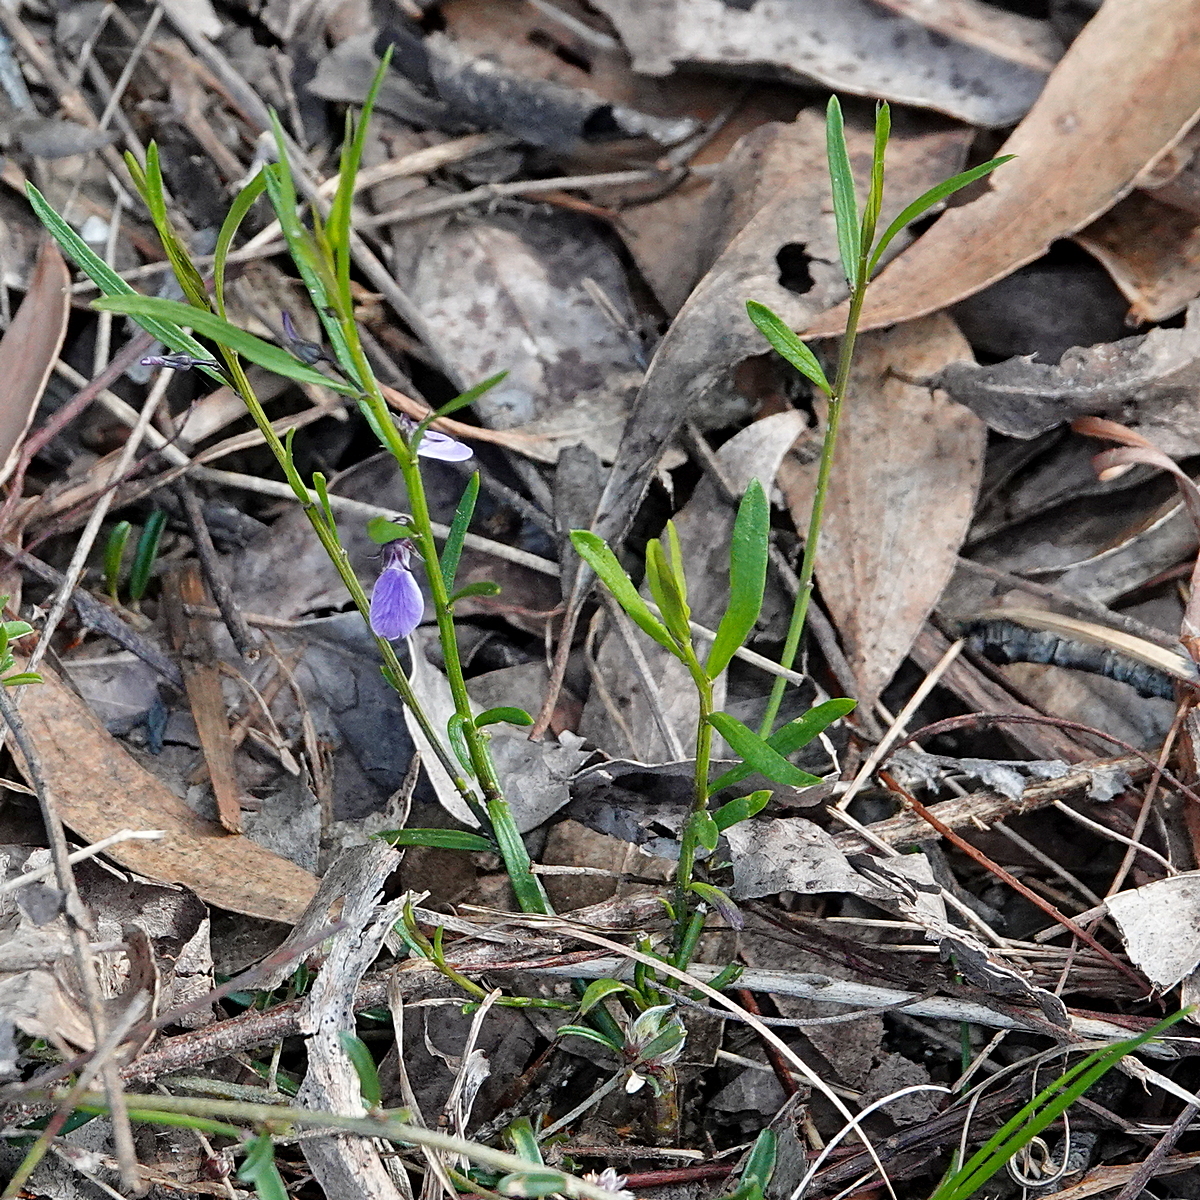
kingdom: Plantae
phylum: Tracheophyta
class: Magnoliopsida
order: Malpighiales
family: Violaceae
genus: Pigea
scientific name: Pigea vernonii
